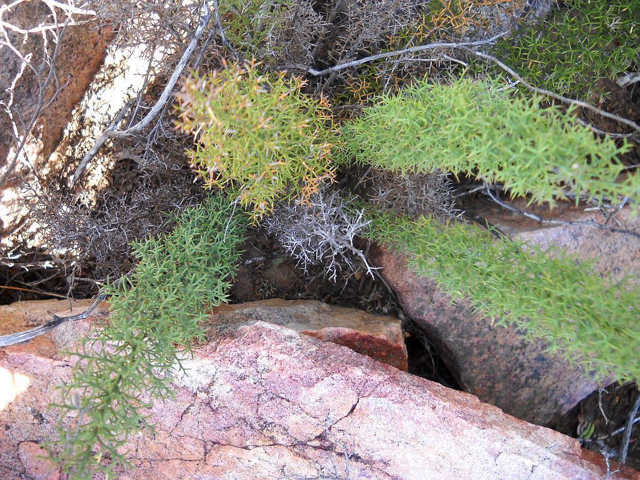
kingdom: Plantae
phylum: Tracheophyta
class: Liliopsida
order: Asparagales
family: Asparagaceae
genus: Asparagus
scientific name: Asparagus oliveri
